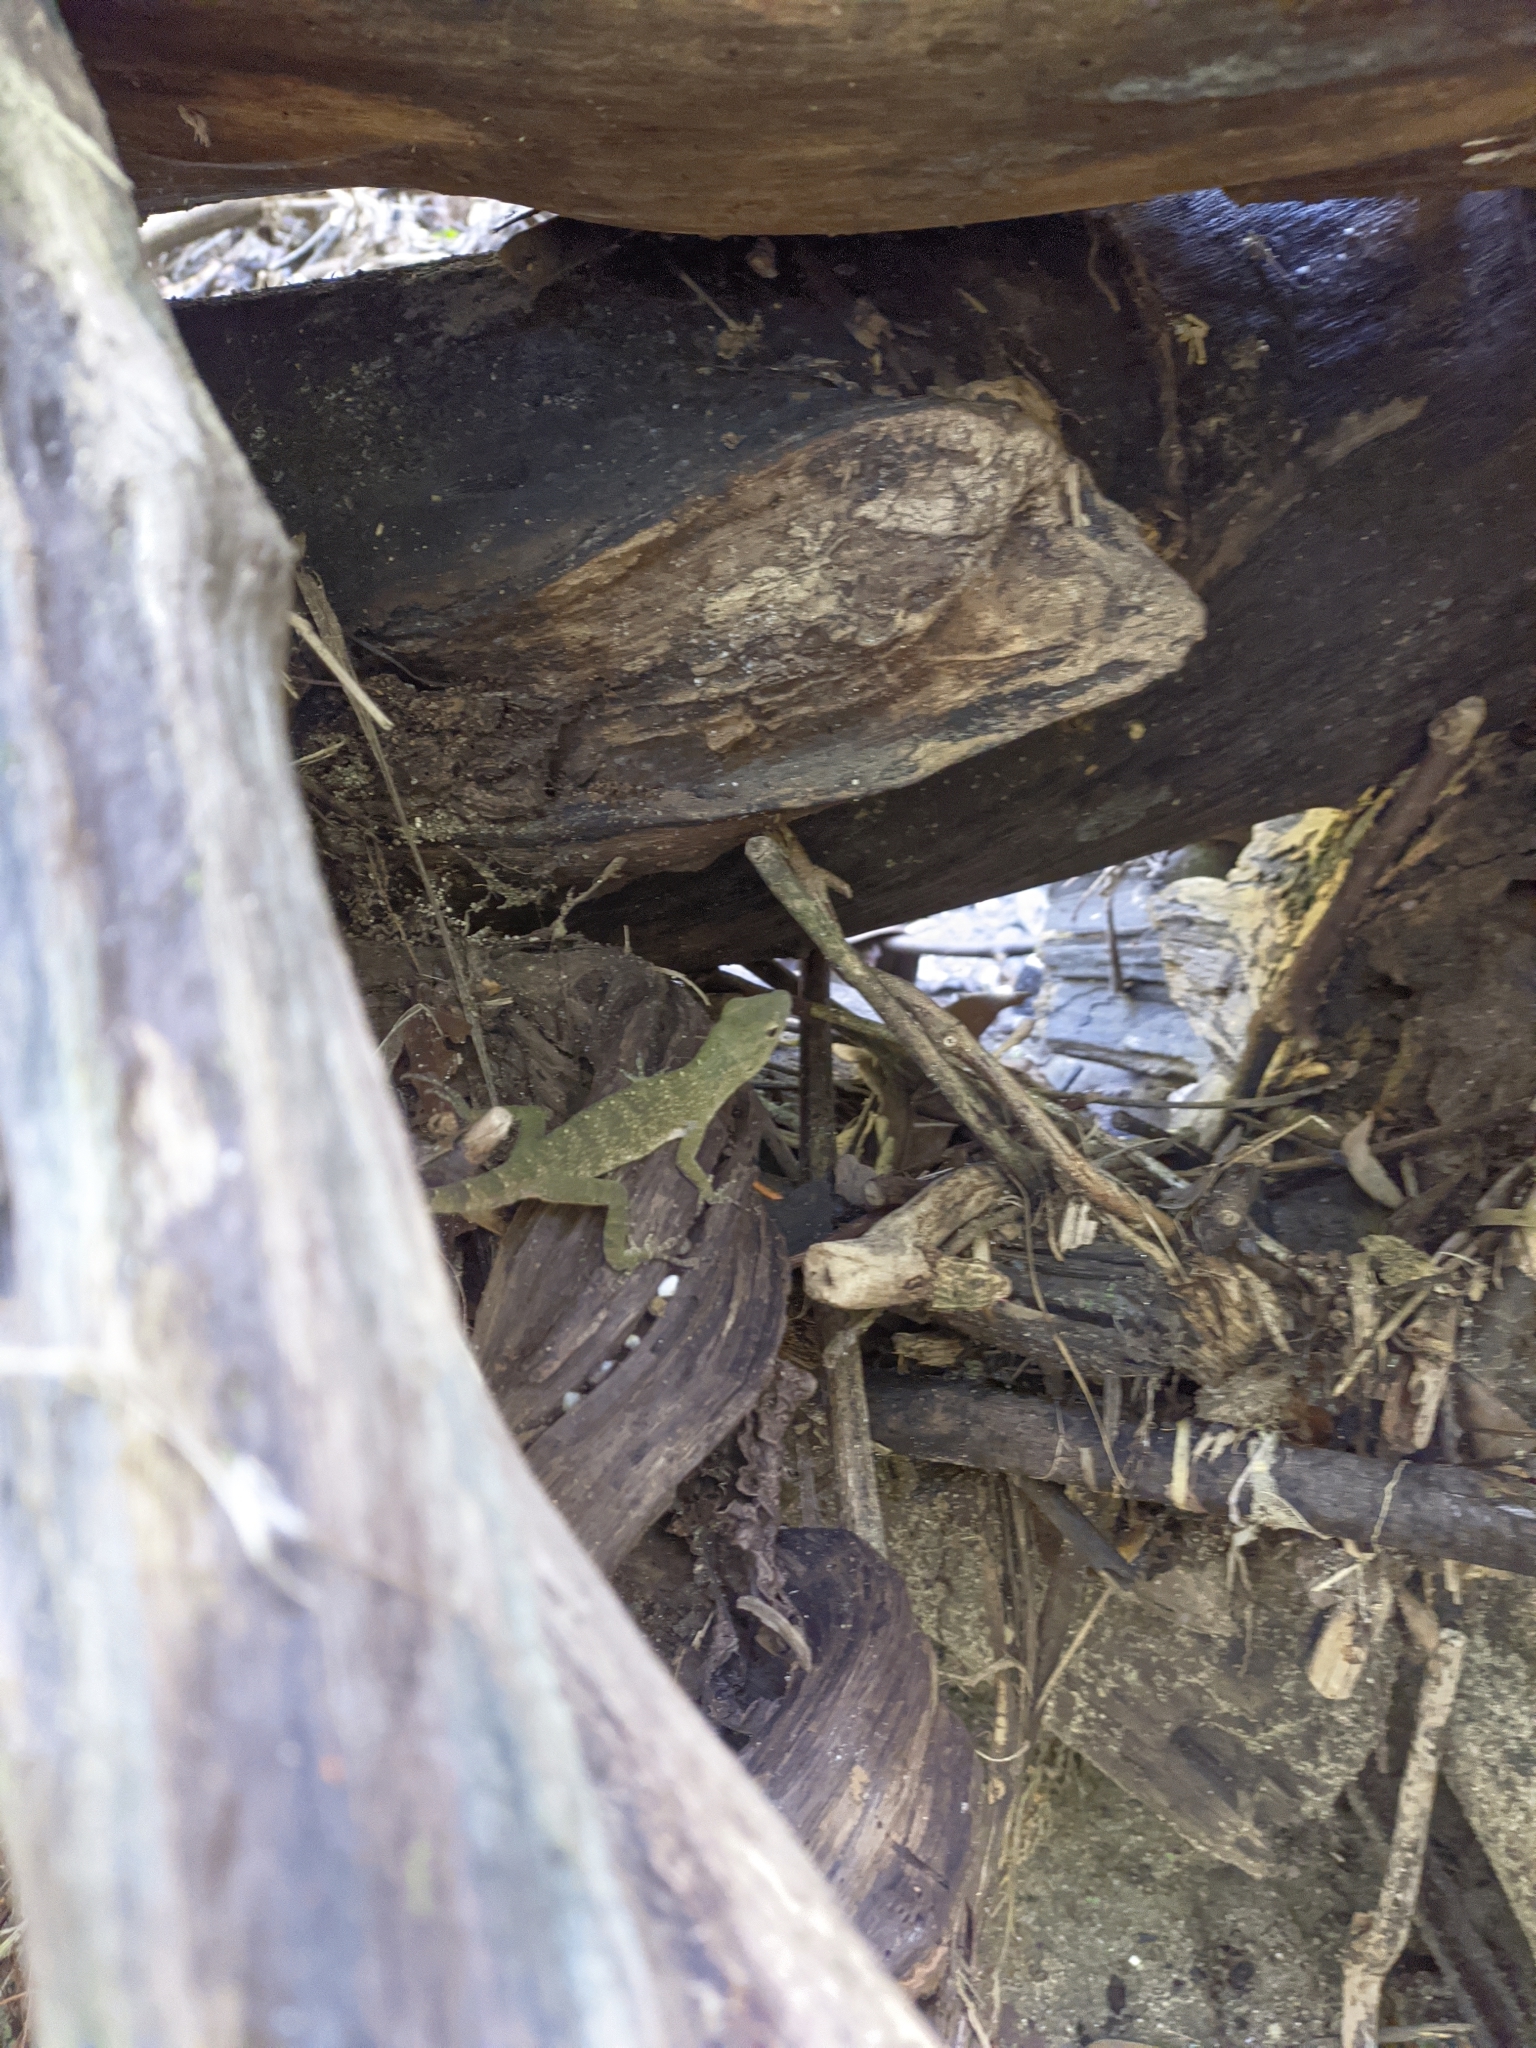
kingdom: Animalia
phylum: Chordata
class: Squamata
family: Dactyloidae
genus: Anolis
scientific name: Anolis biporcatus
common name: Giant green anole
